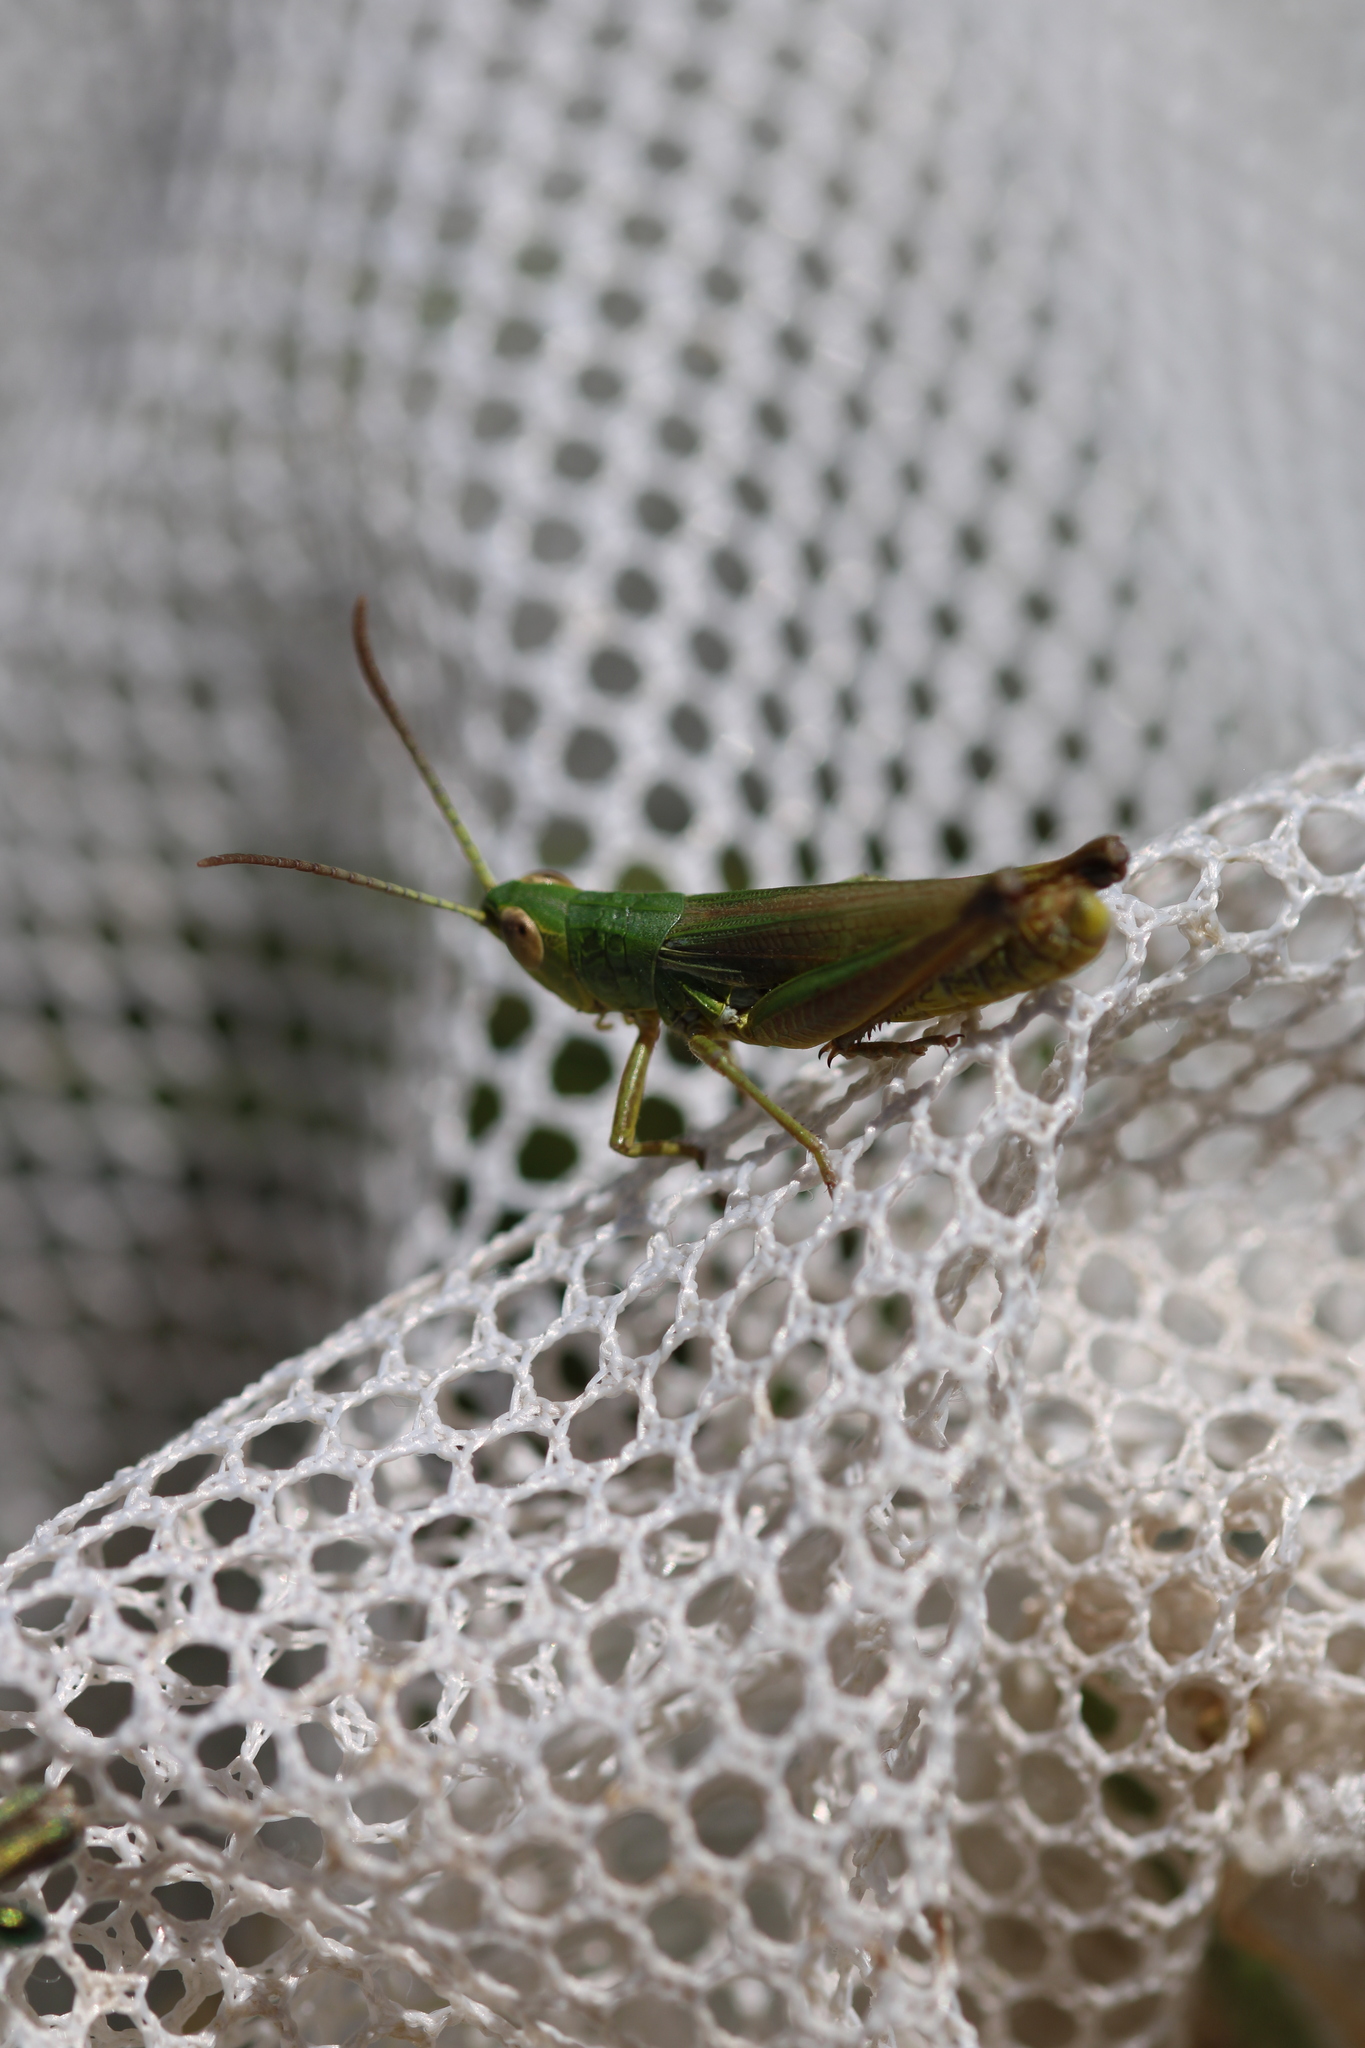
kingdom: Animalia
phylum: Arthropoda
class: Insecta
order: Orthoptera
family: Acrididae
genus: Pseudochorthippus
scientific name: Pseudochorthippus parallelus
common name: Meadow grasshopper
